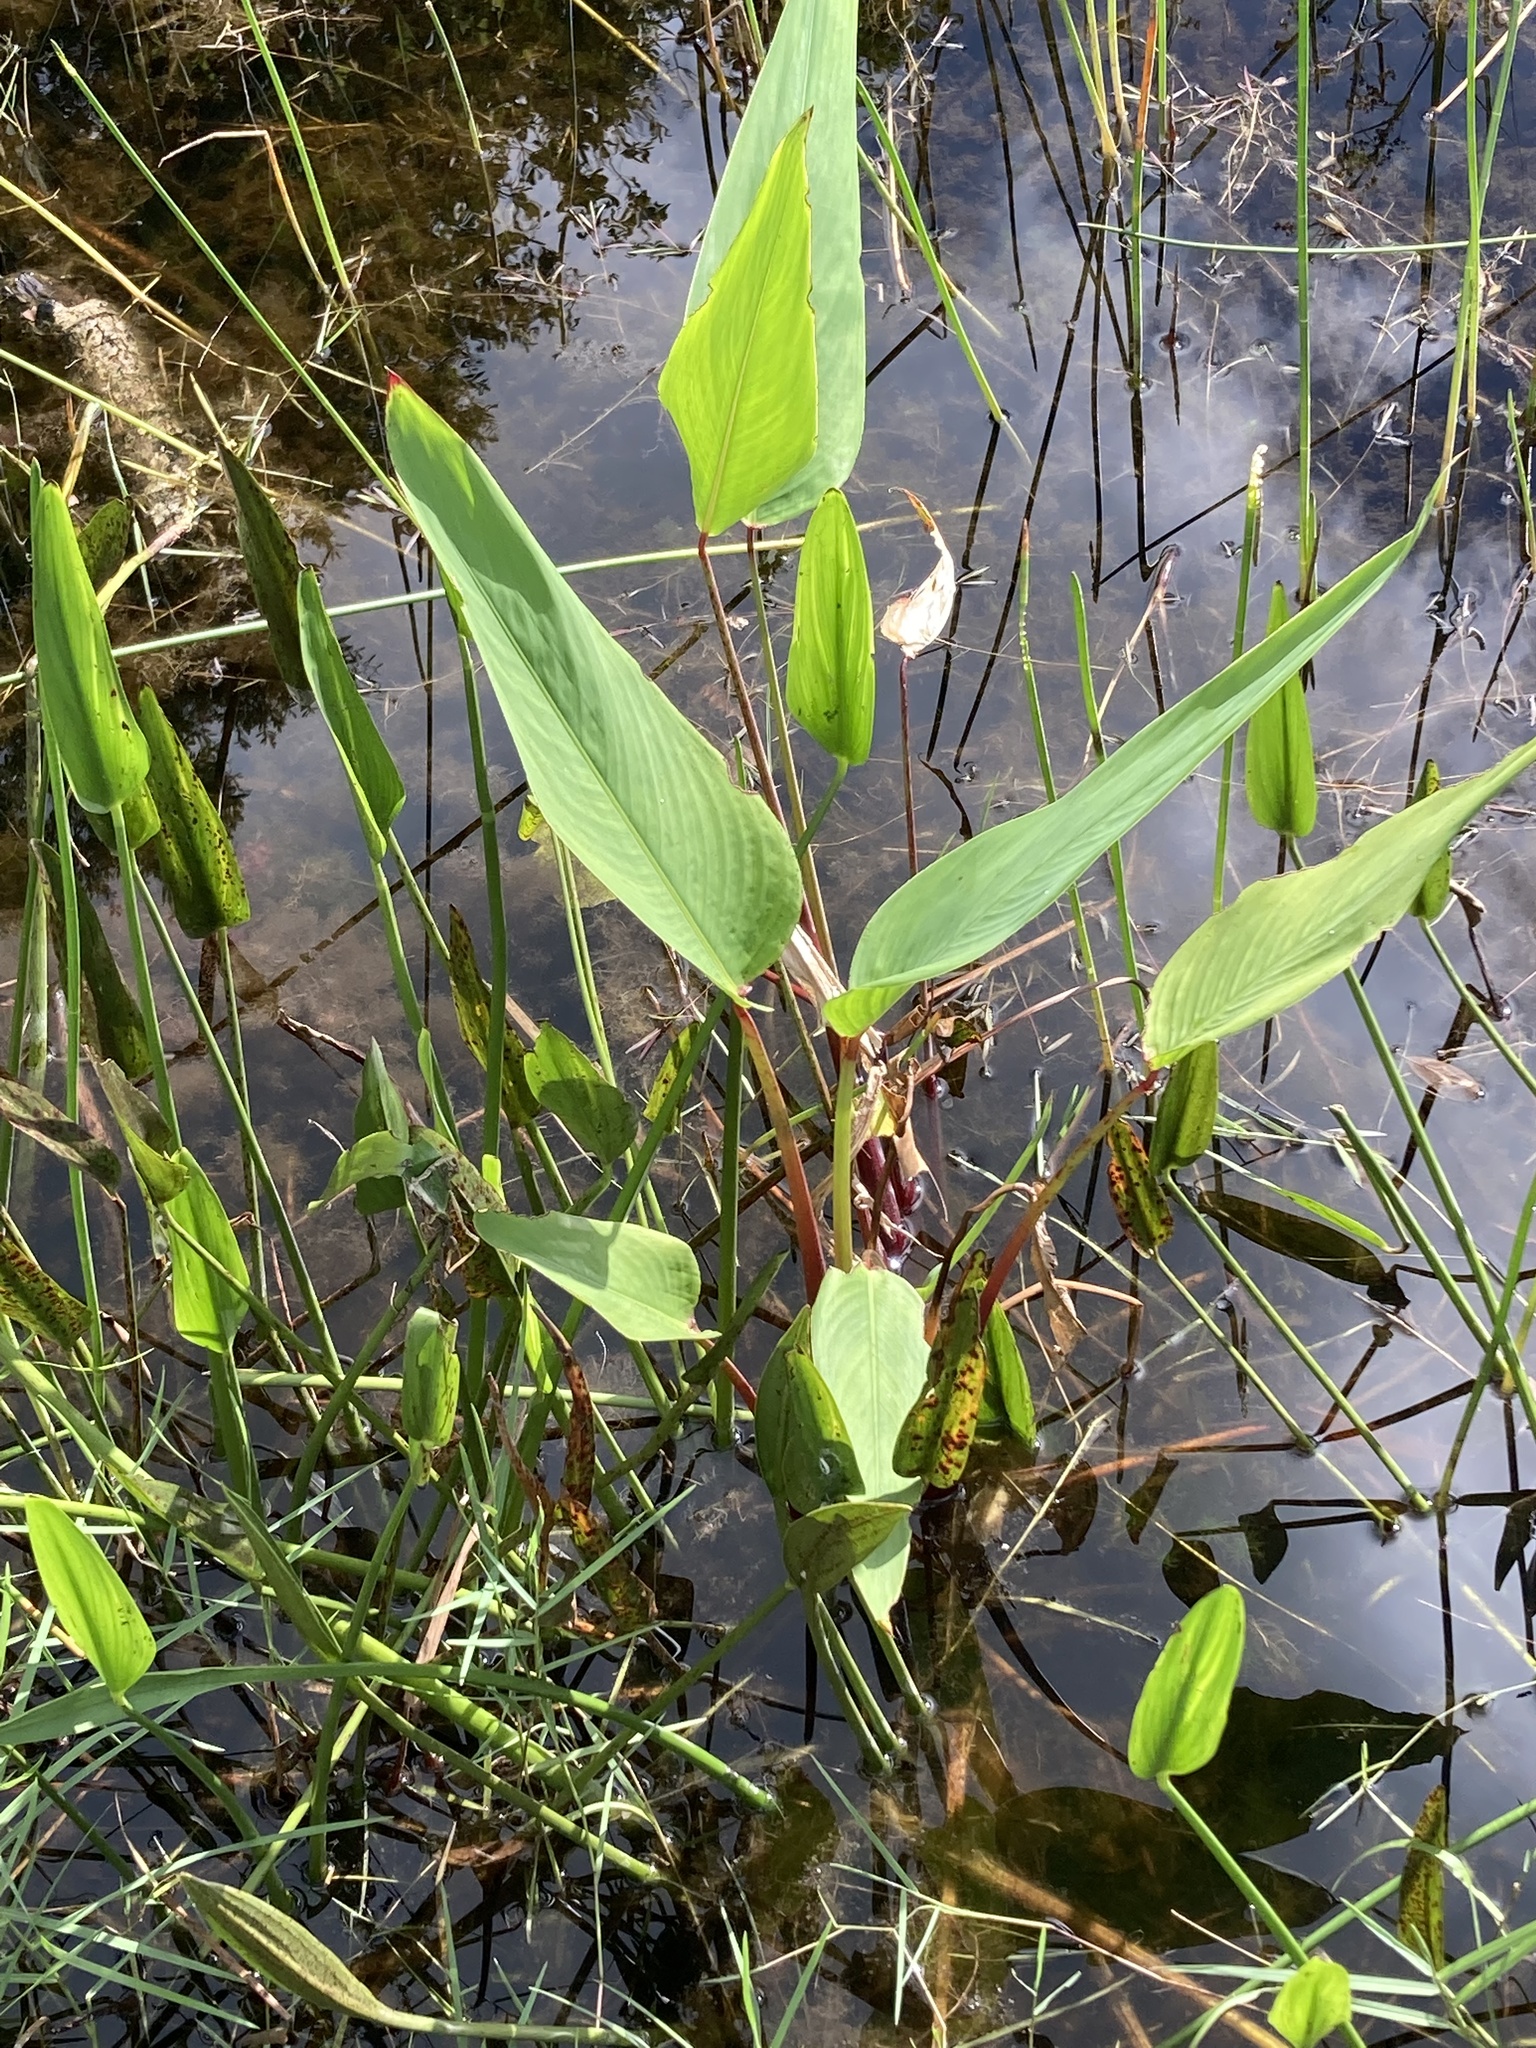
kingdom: Plantae
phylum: Tracheophyta
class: Liliopsida
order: Zingiberales
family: Marantaceae
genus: Thalia
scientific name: Thalia geniculata
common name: Arrowroot
